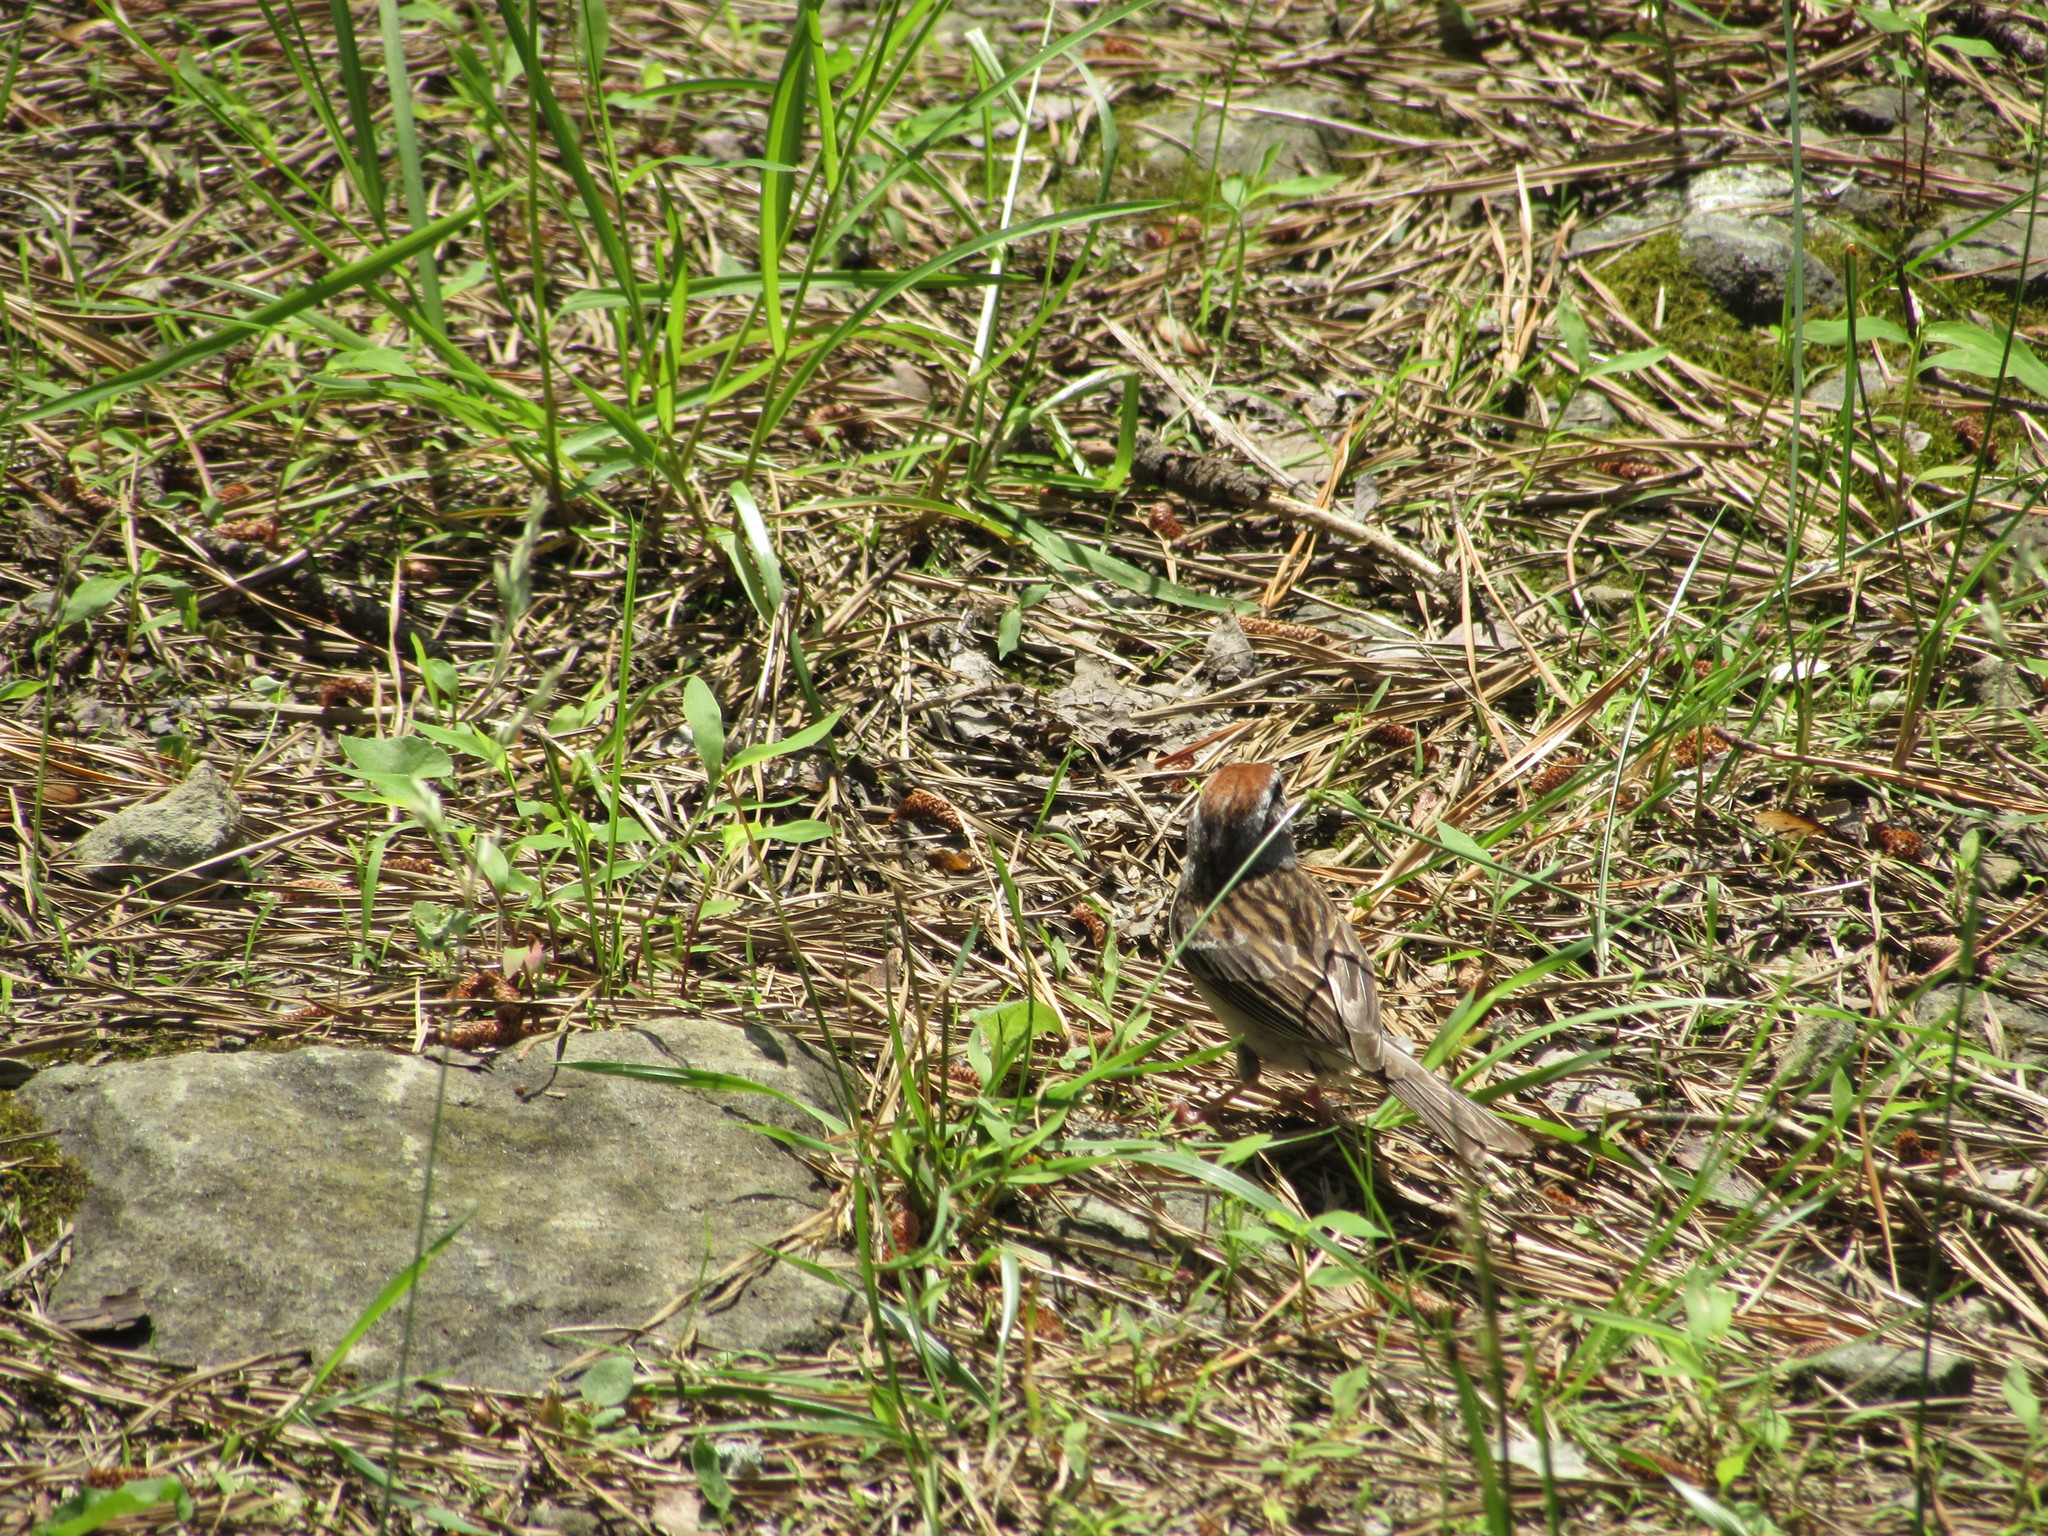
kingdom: Animalia
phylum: Chordata
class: Aves
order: Passeriformes
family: Passerellidae
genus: Spizella
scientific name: Spizella passerina
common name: Chipping sparrow
